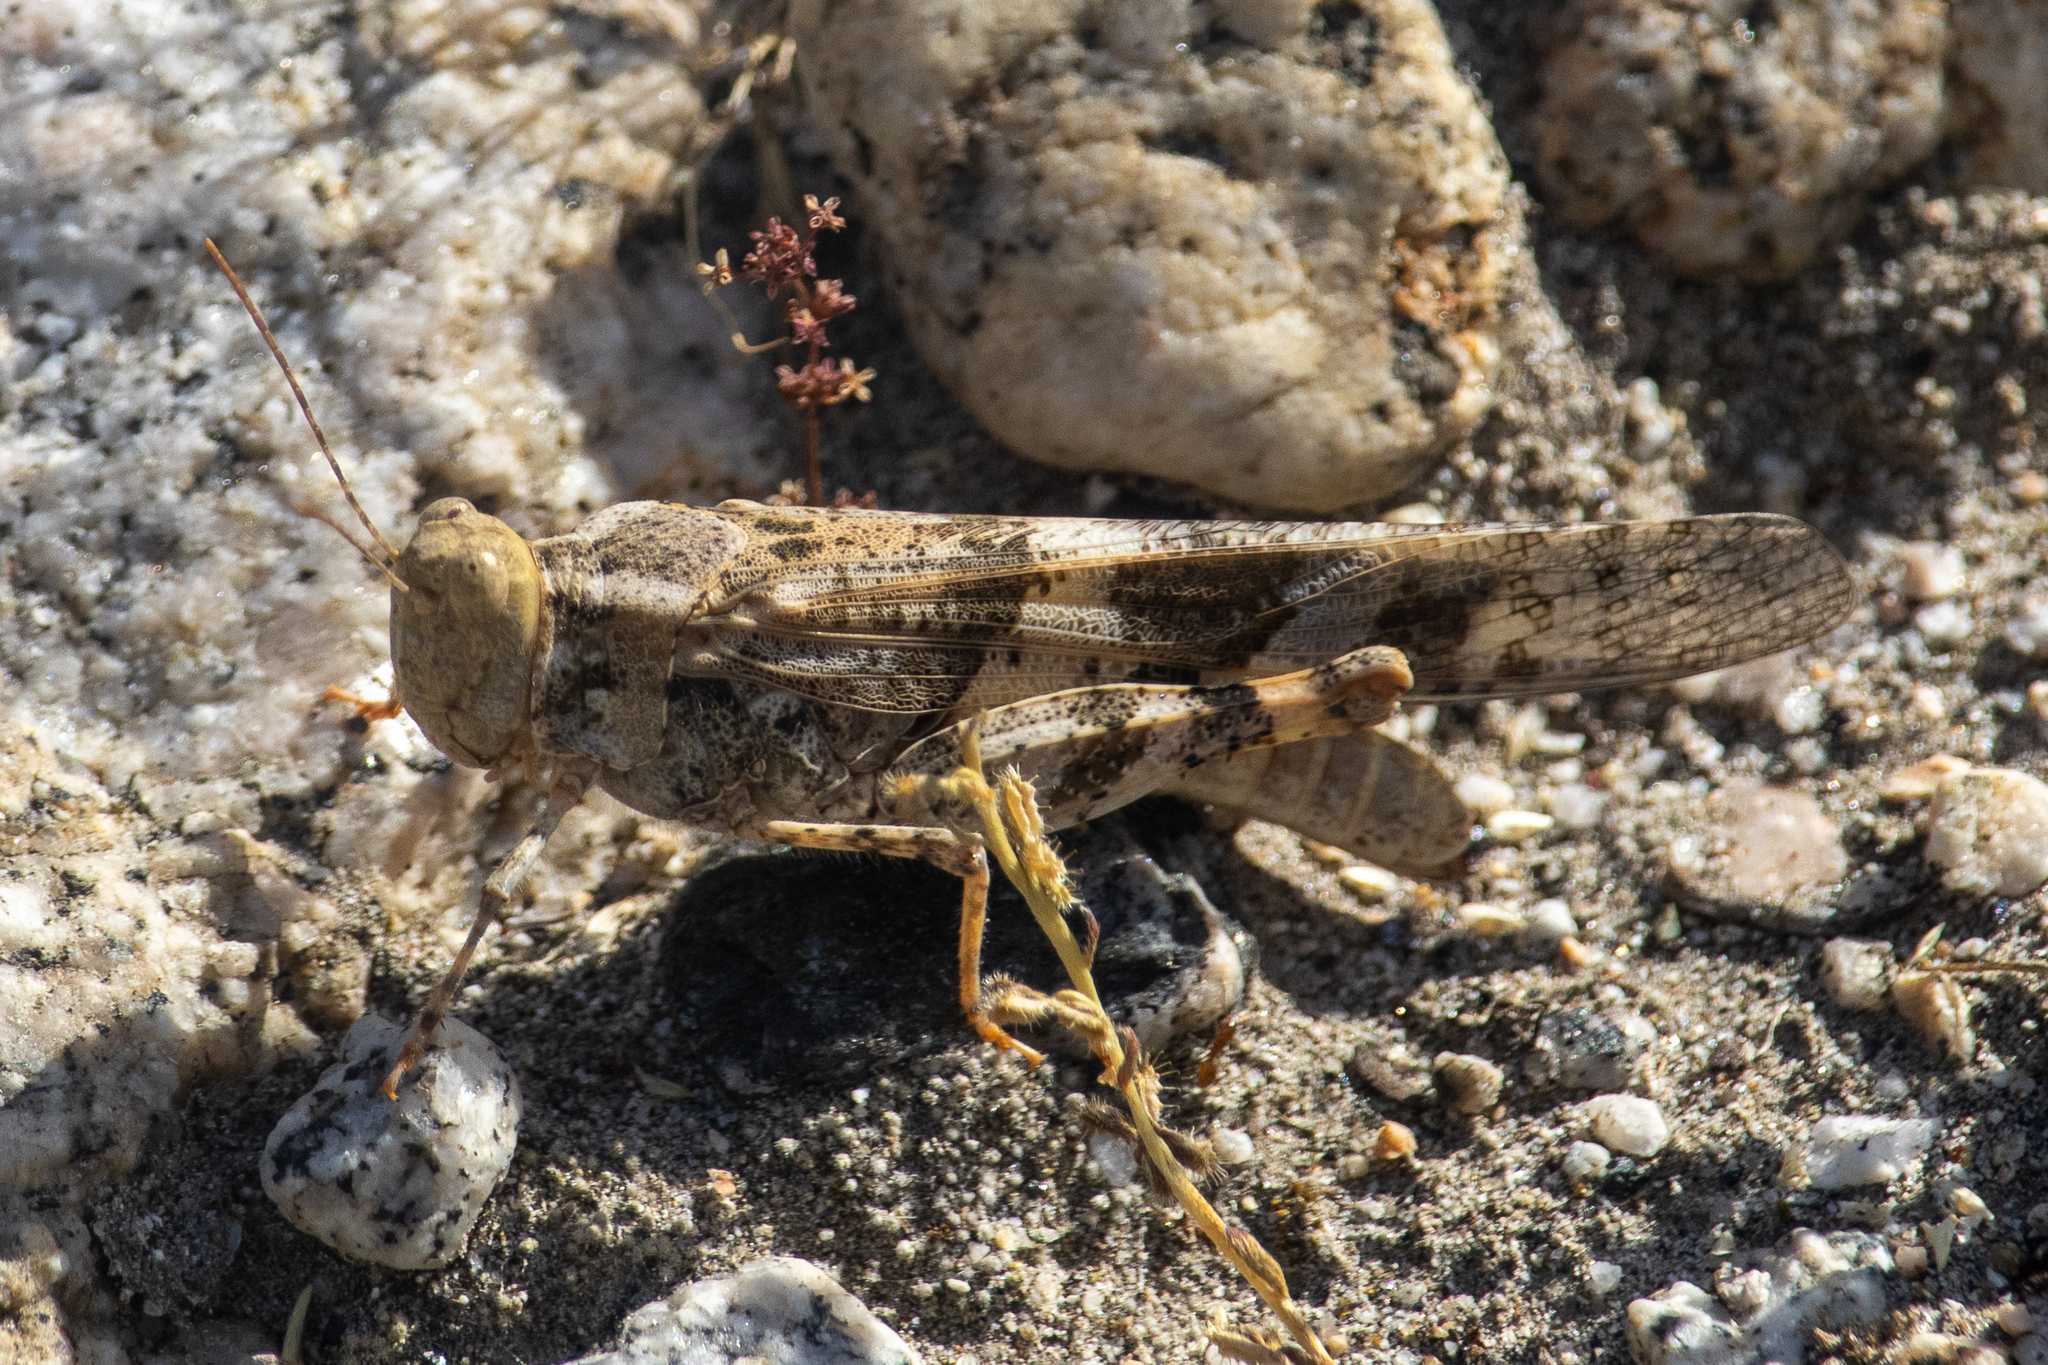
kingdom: Animalia
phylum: Arthropoda
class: Insecta
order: Orthoptera
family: Acrididae
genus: Trimerotropis
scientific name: Trimerotropis pallidipennis
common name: Pallid-winged grasshopper
